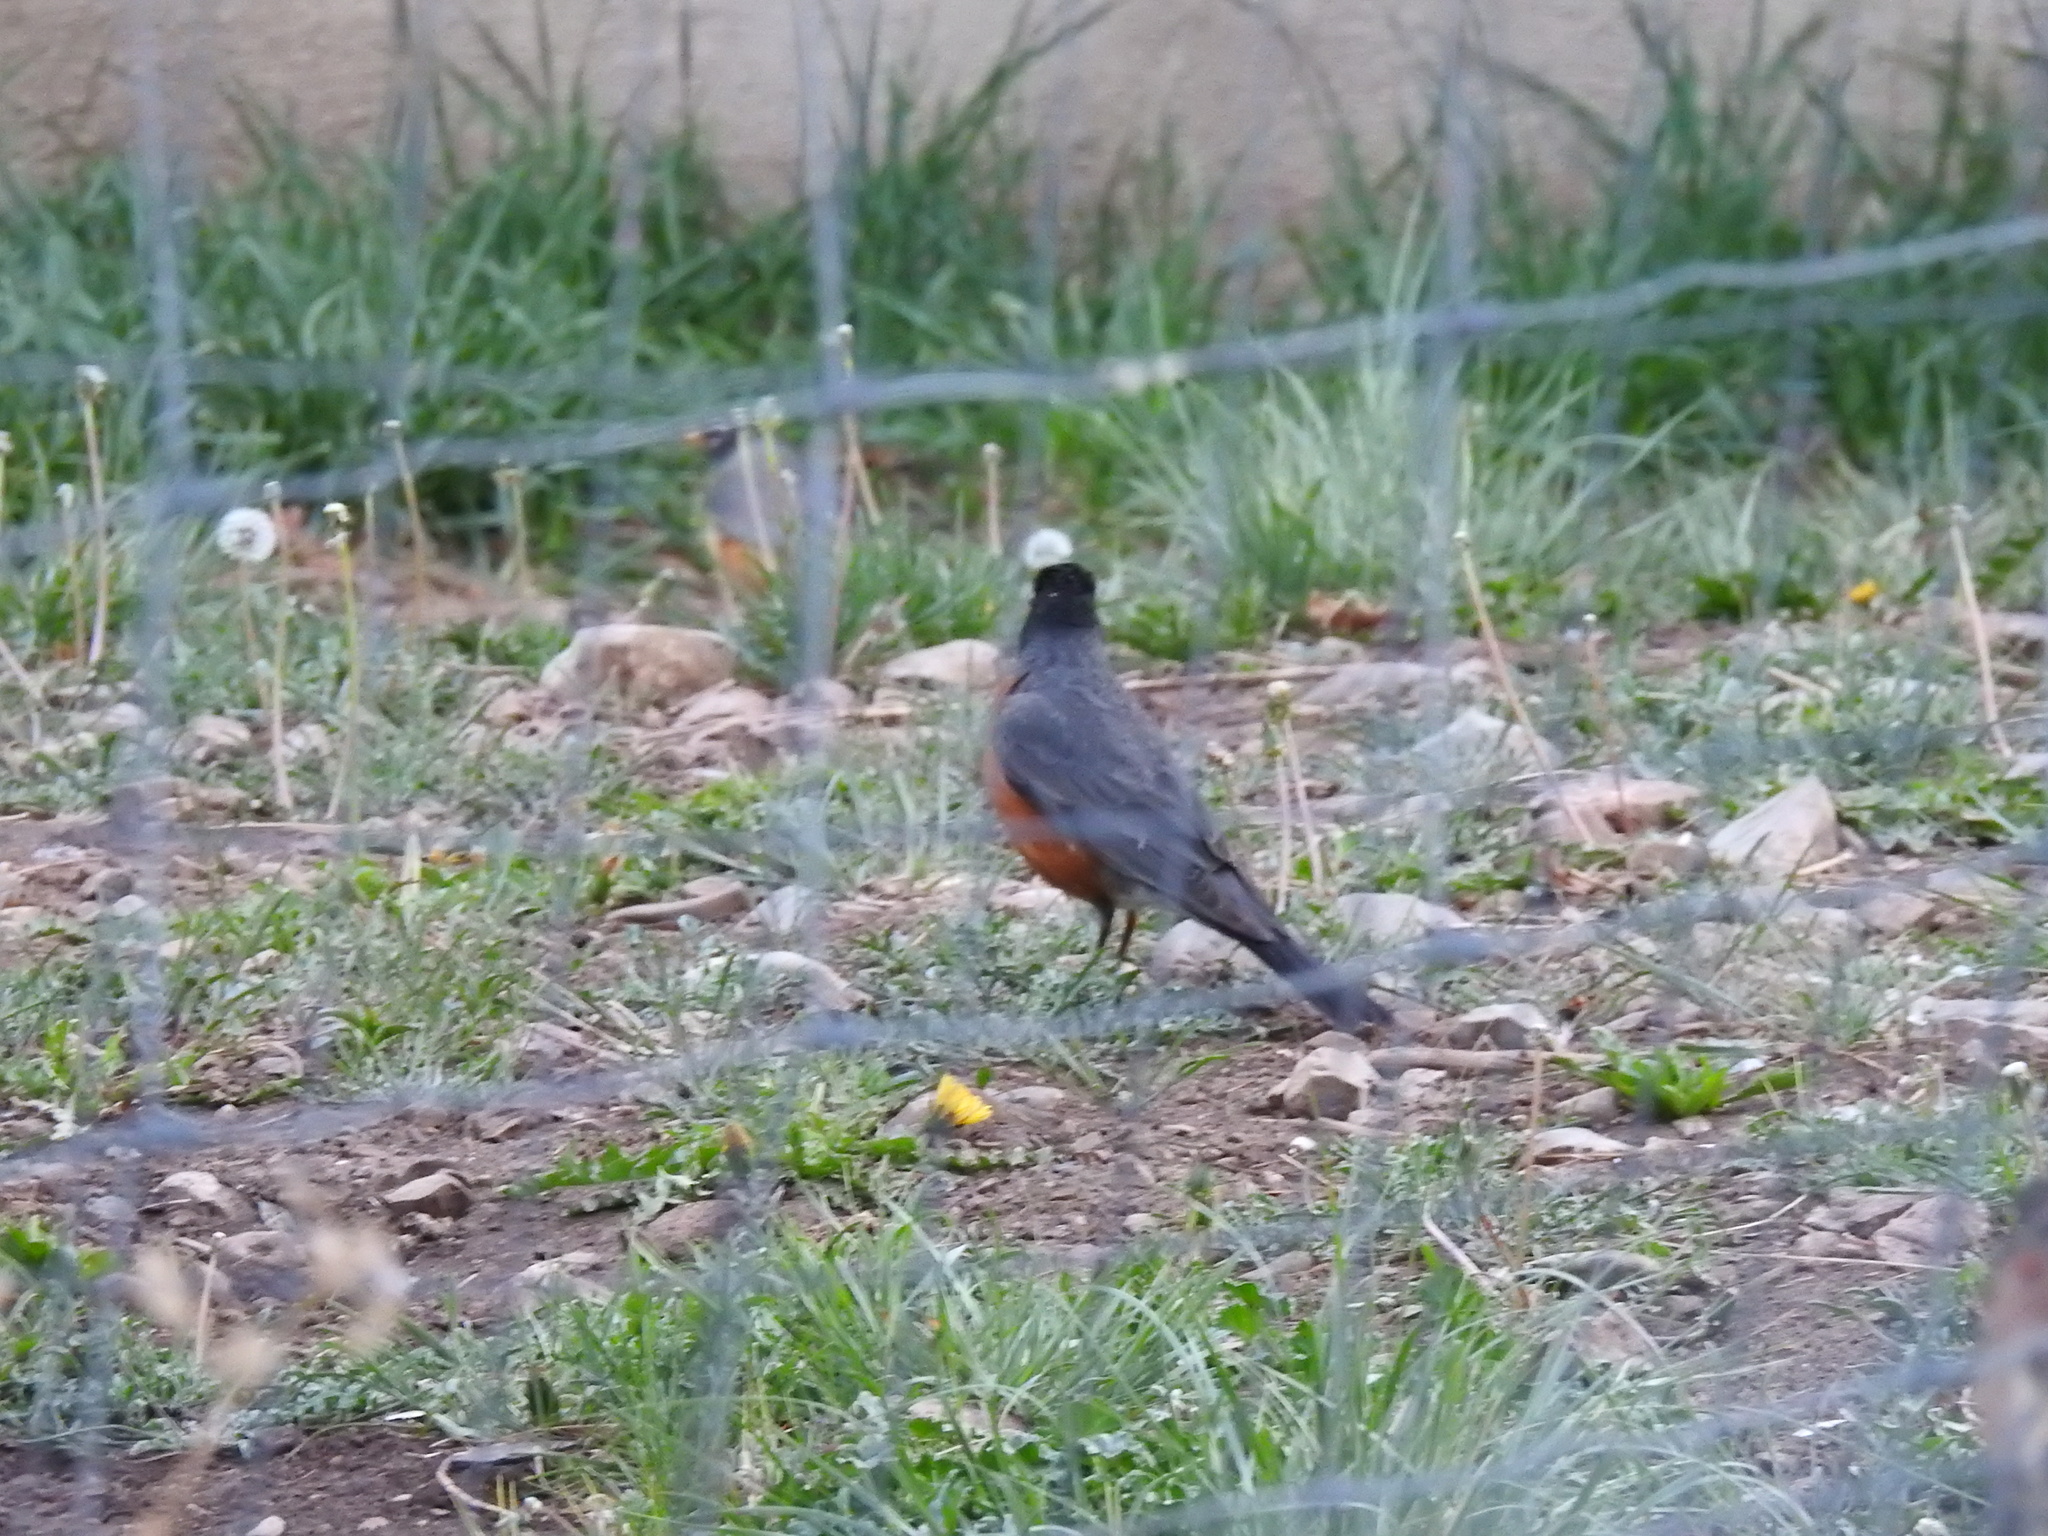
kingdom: Animalia
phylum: Chordata
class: Aves
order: Passeriformes
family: Turdidae
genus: Turdus
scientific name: Turdus migratorius
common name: American robin
